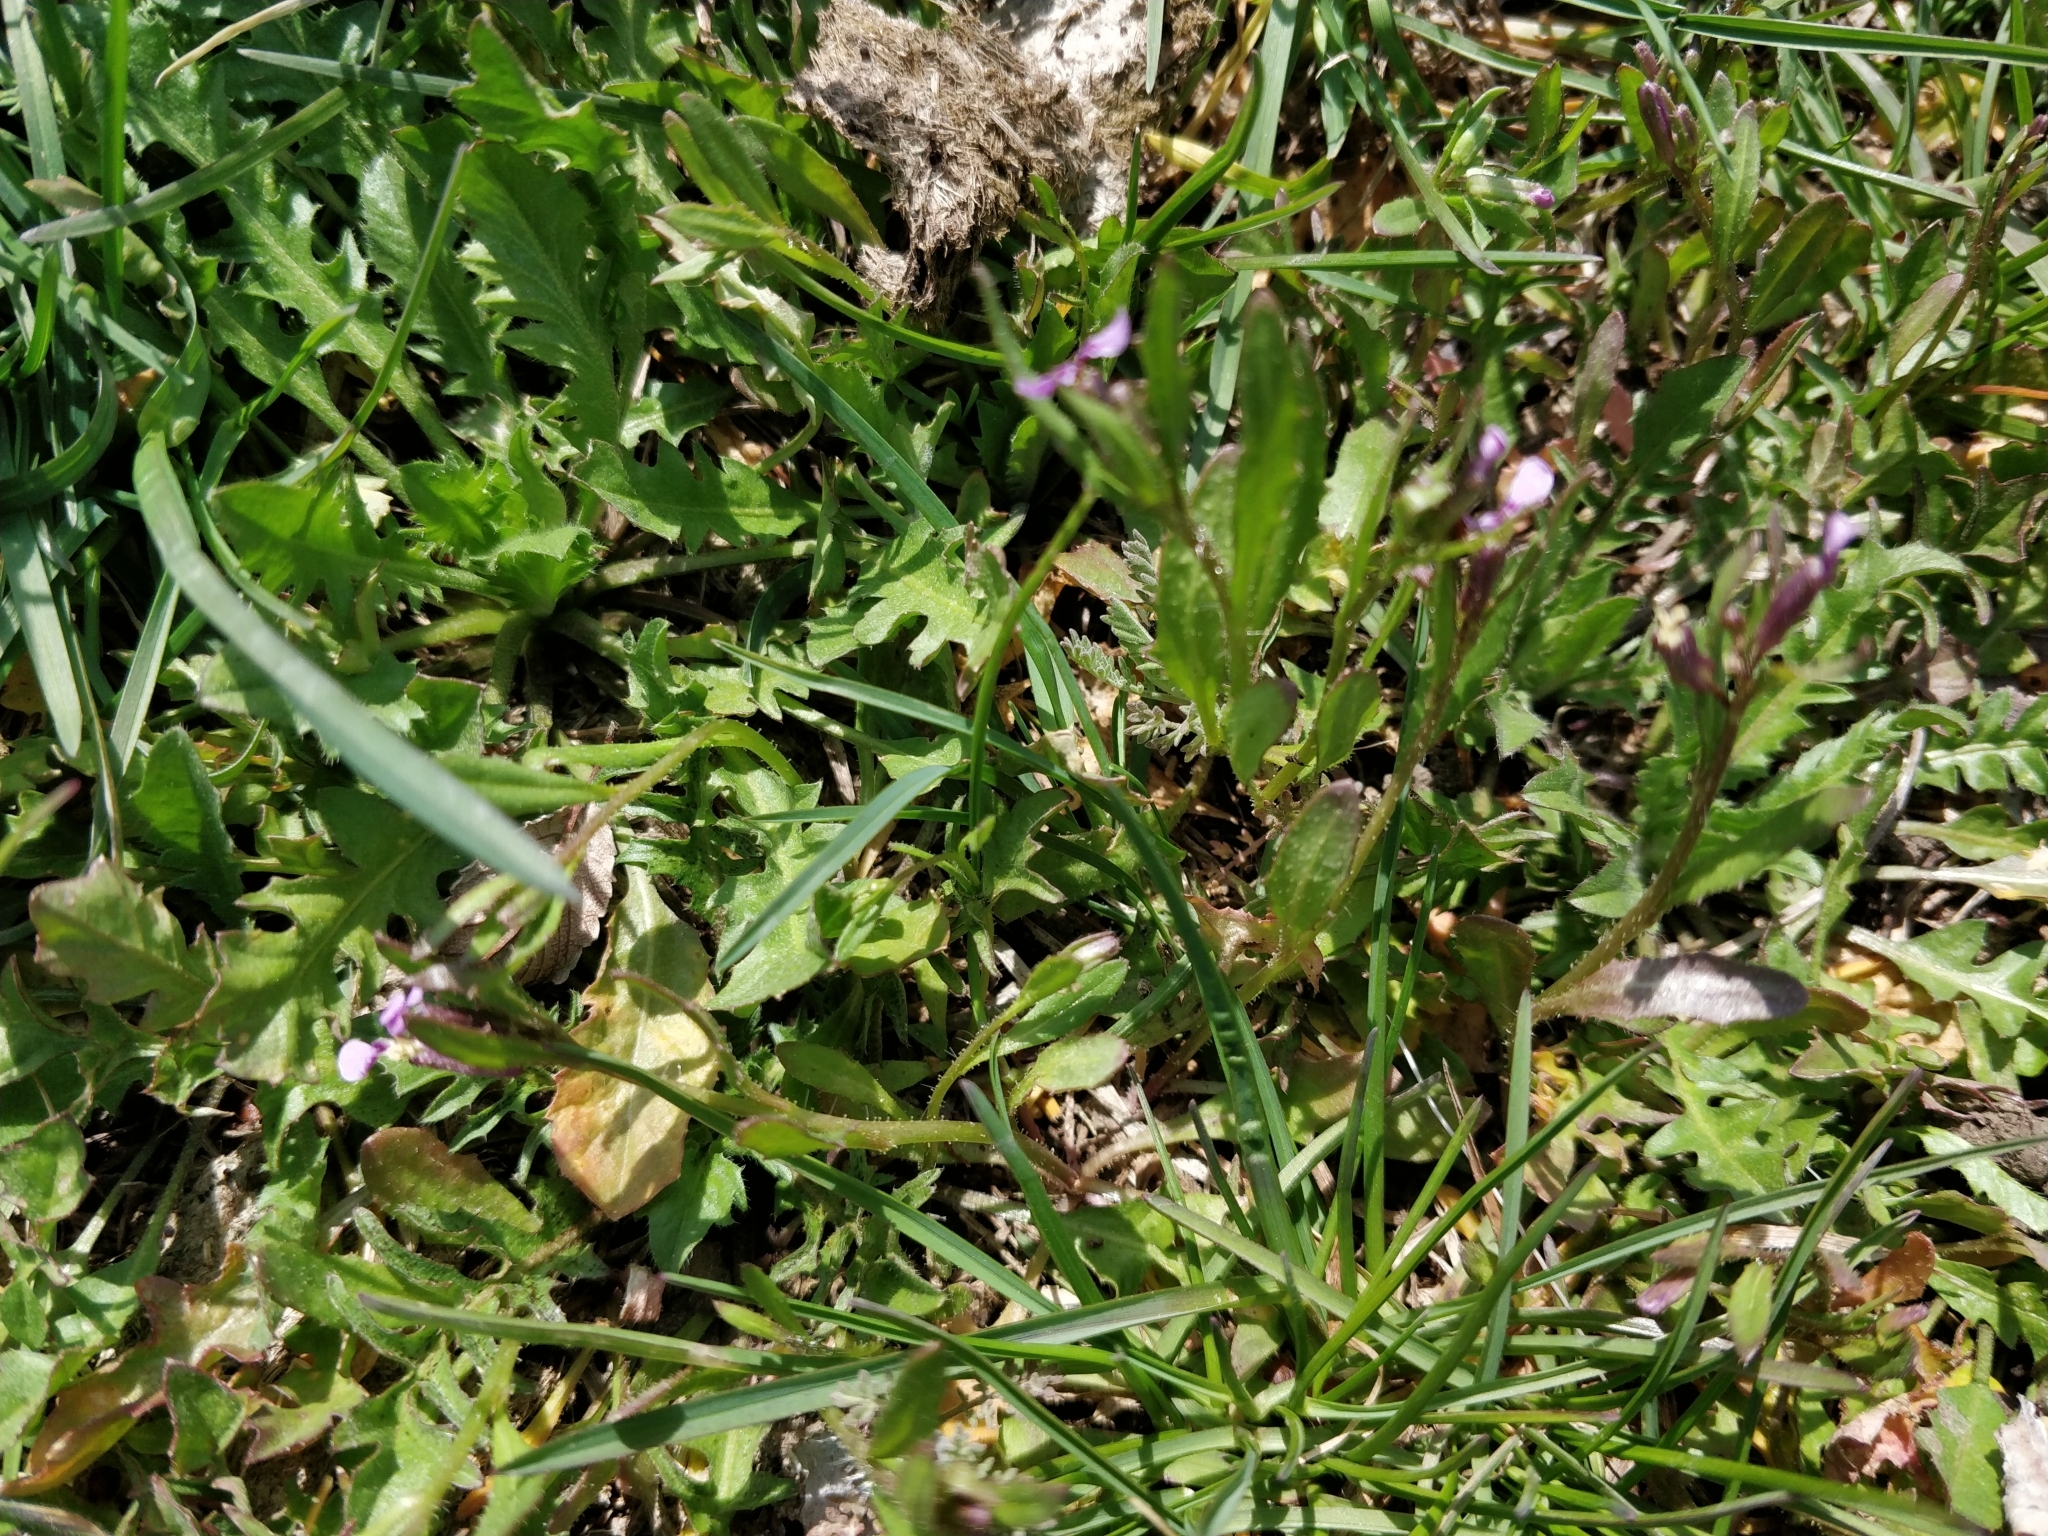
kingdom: Plantae
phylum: Tracheophyta
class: Magnoliopsida
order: Brassicales
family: Brassicaceae
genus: Chorispora
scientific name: Chorispora tenella
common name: Crossflower
